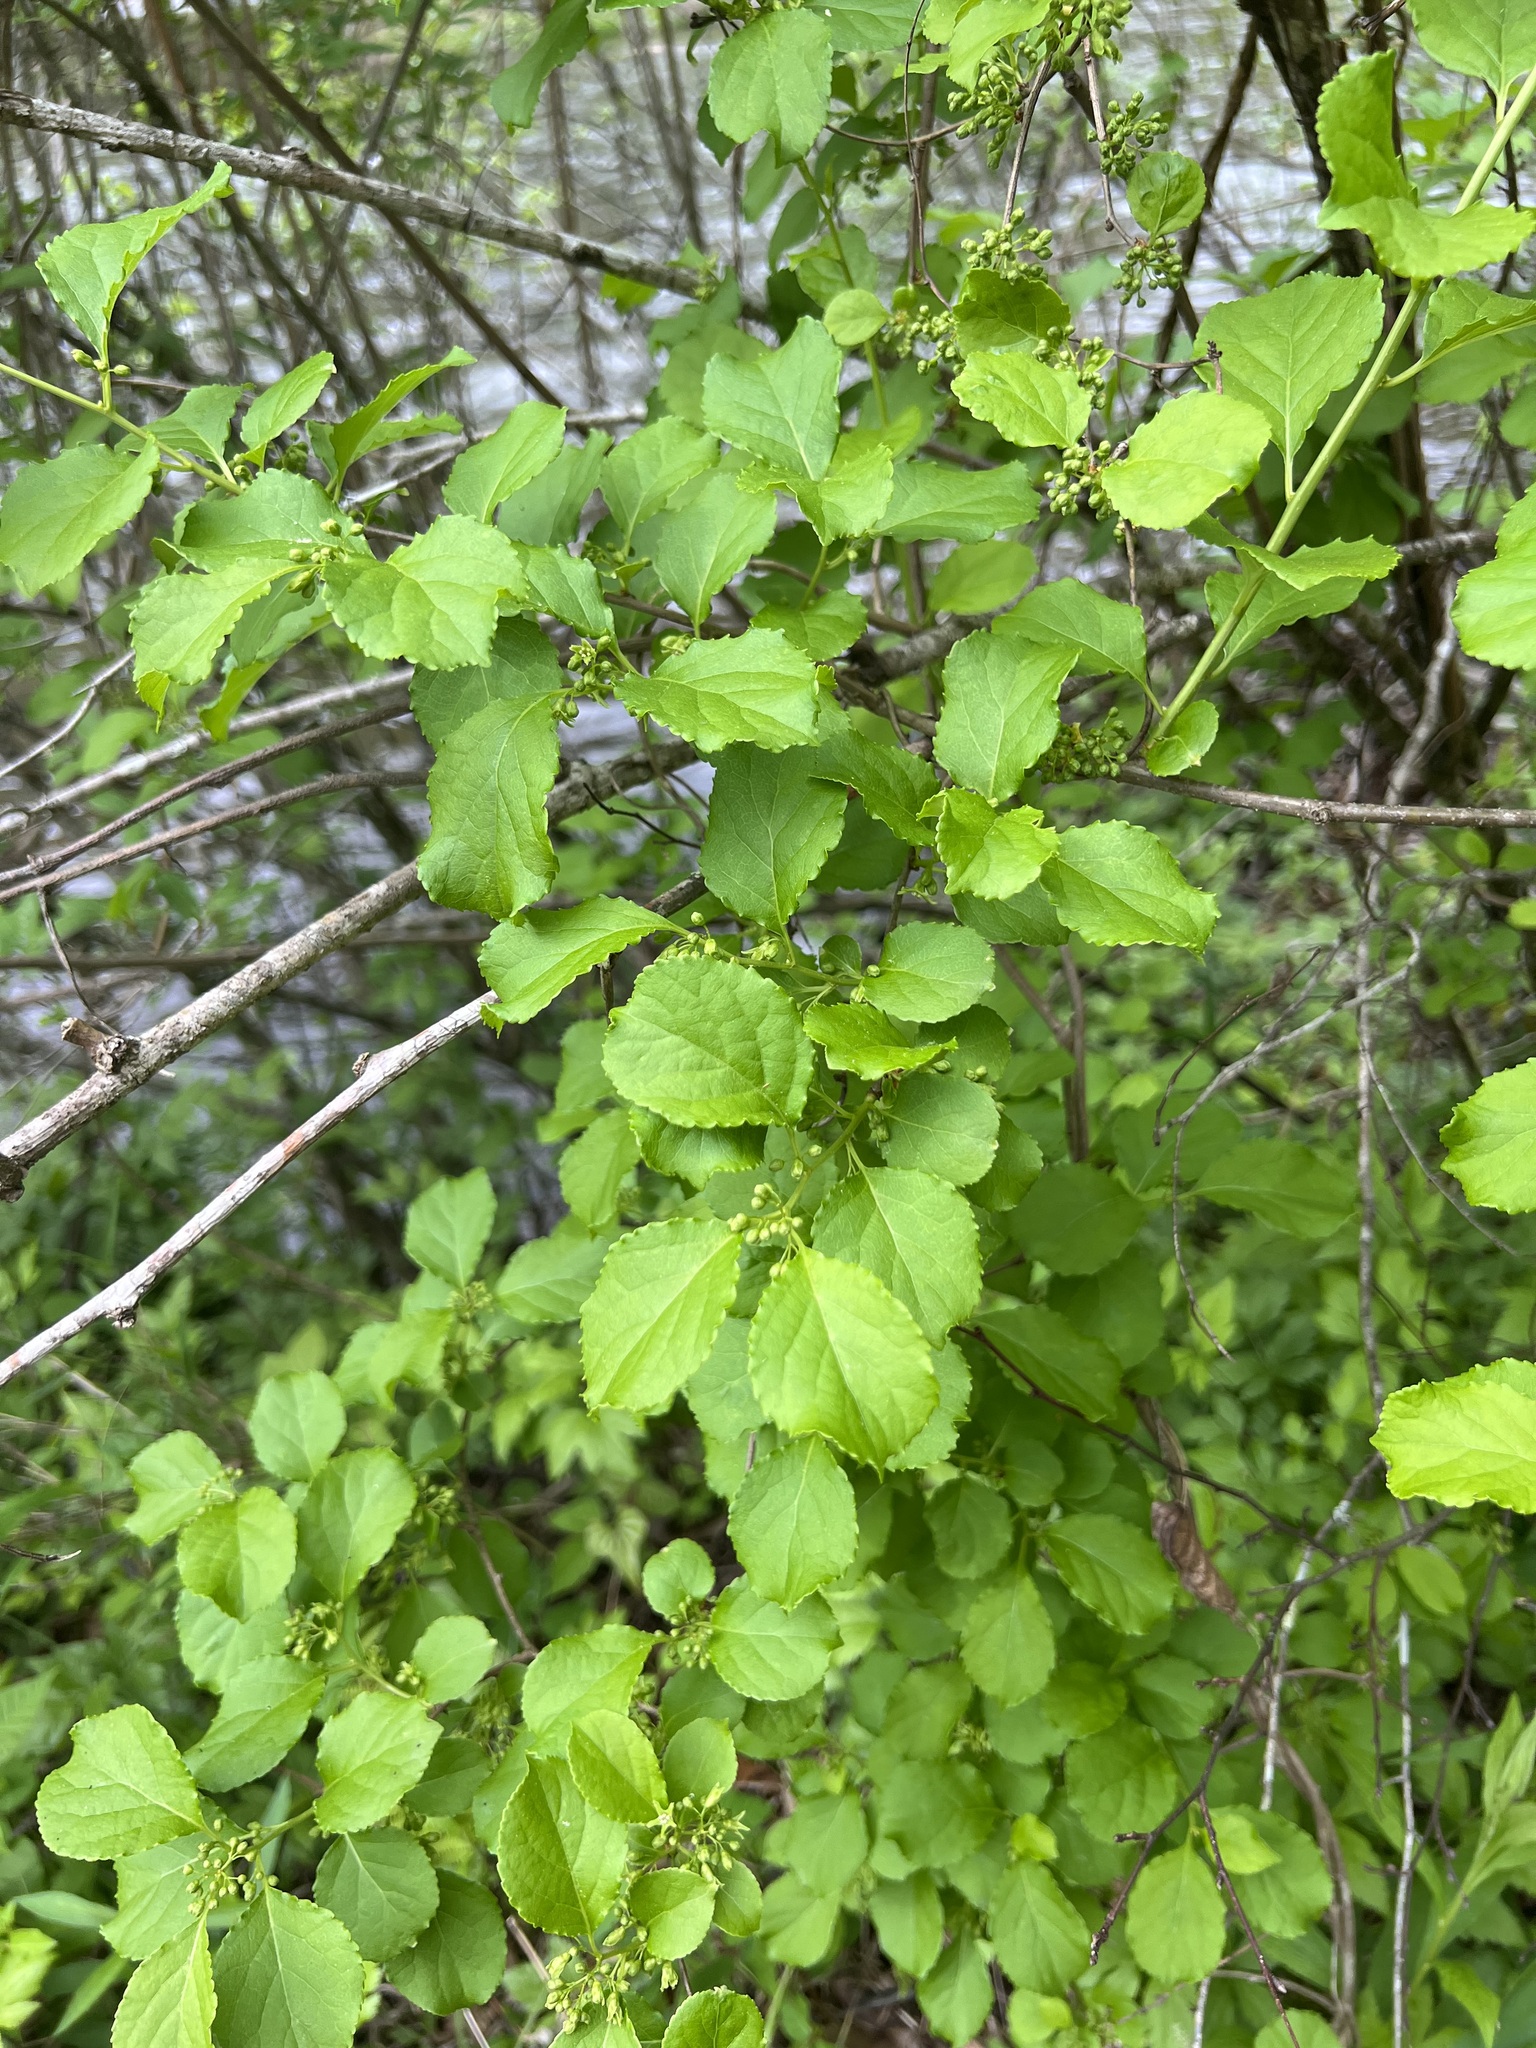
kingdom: Plantae
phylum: Tracheophyta
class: Magnoliopsida
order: Celastrales
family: Celastraceae
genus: Celastrus
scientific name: Celastrus orbiculatus
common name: Oriental bittersweet
